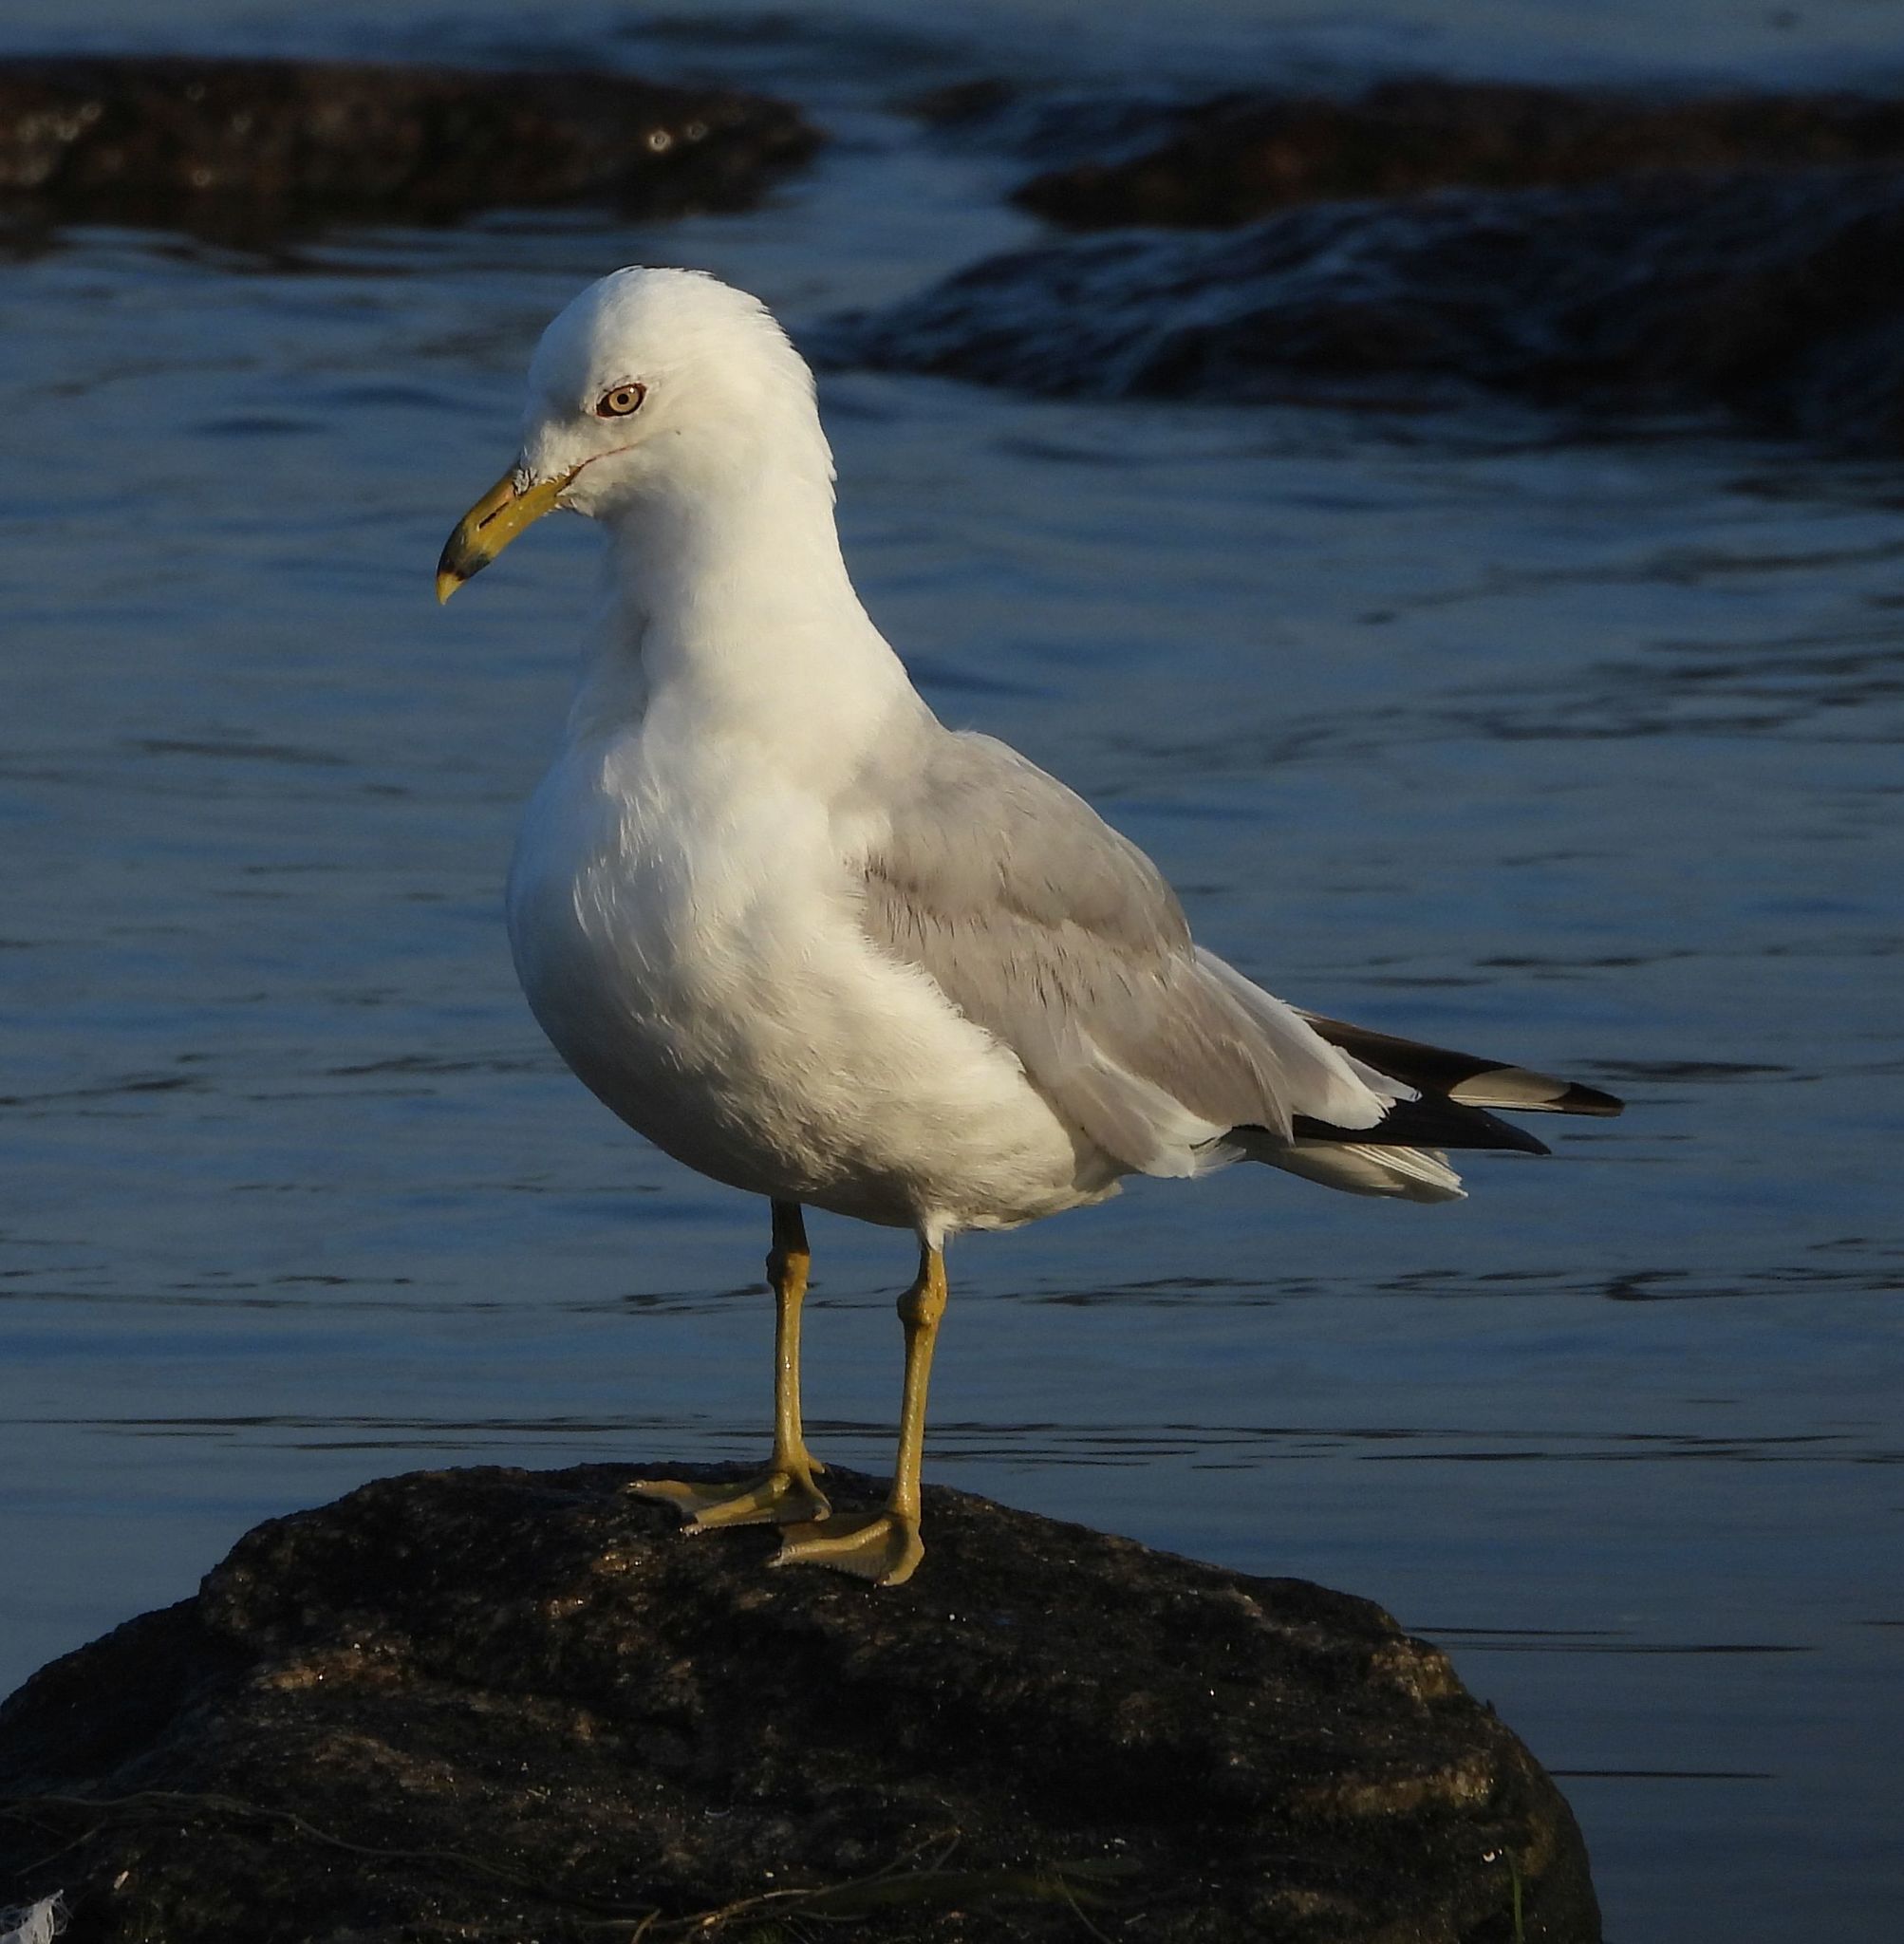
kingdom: Animalia
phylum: Chordata
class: Aves
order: Charadriiformes
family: Laridae
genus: Larus
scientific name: Larus delawarensis
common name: Ring-billed gull
